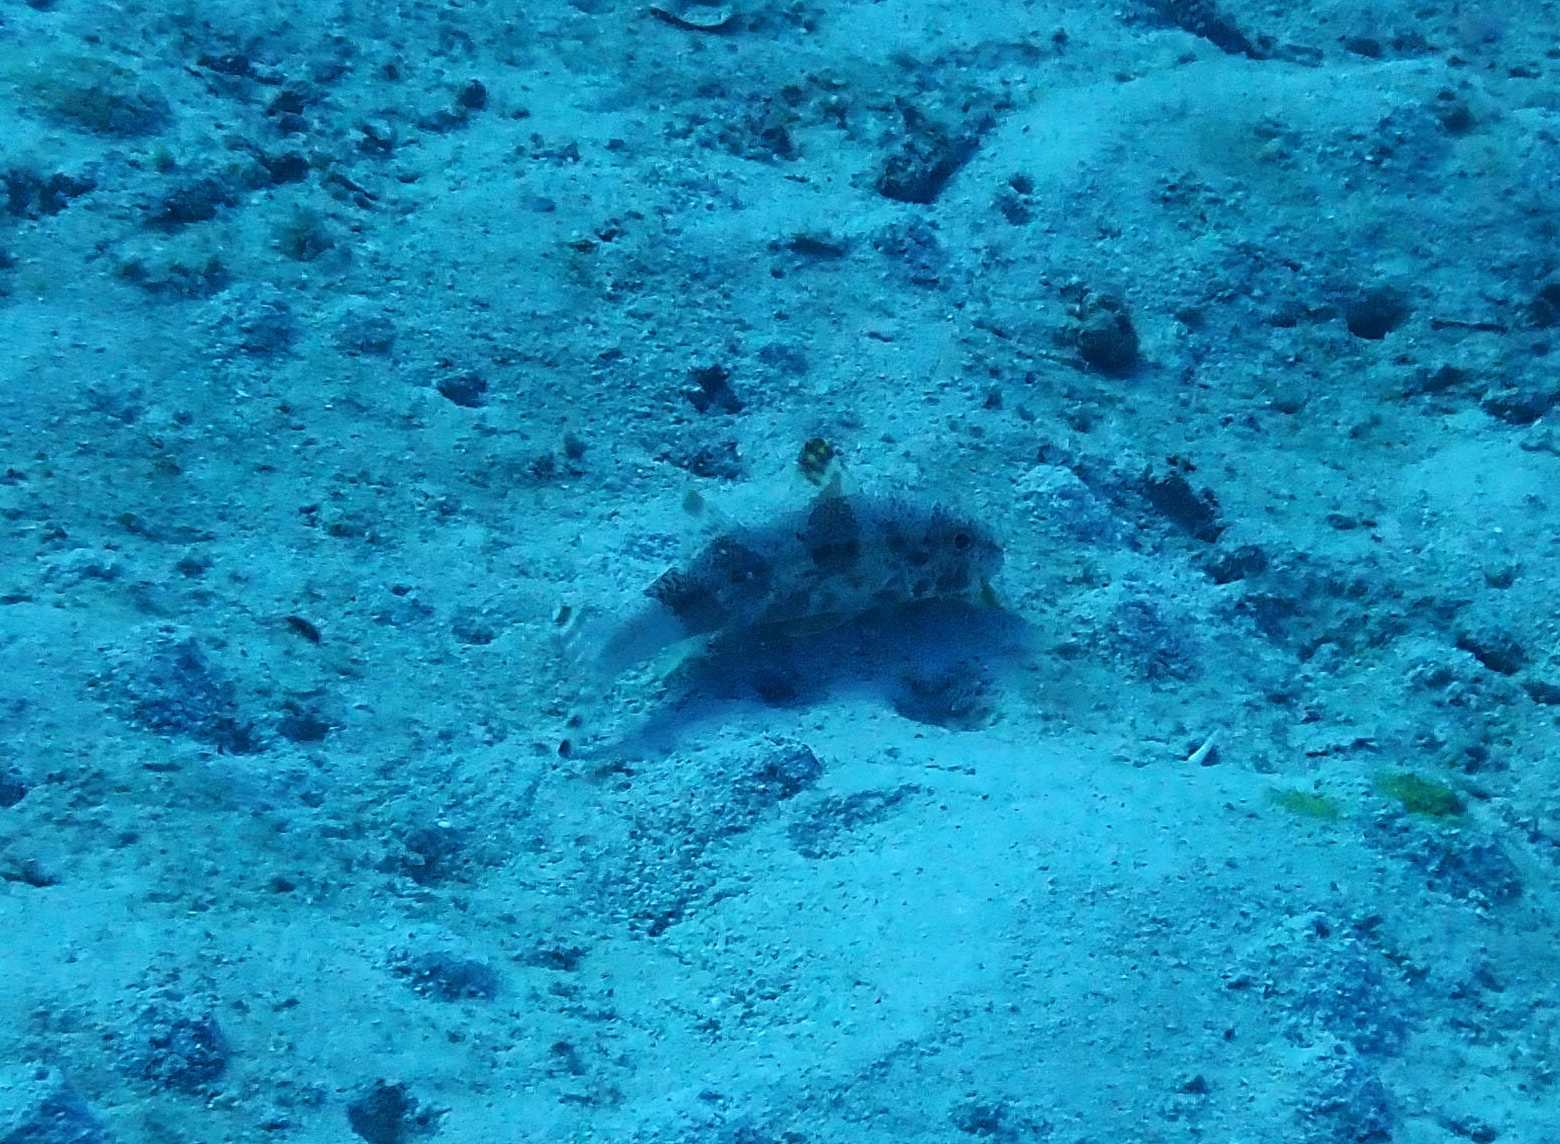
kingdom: Animalia
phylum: Chordata
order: Perciformes
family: Mullidae
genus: Upeneus
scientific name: Upeneus tragula
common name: Freckled goatfish
